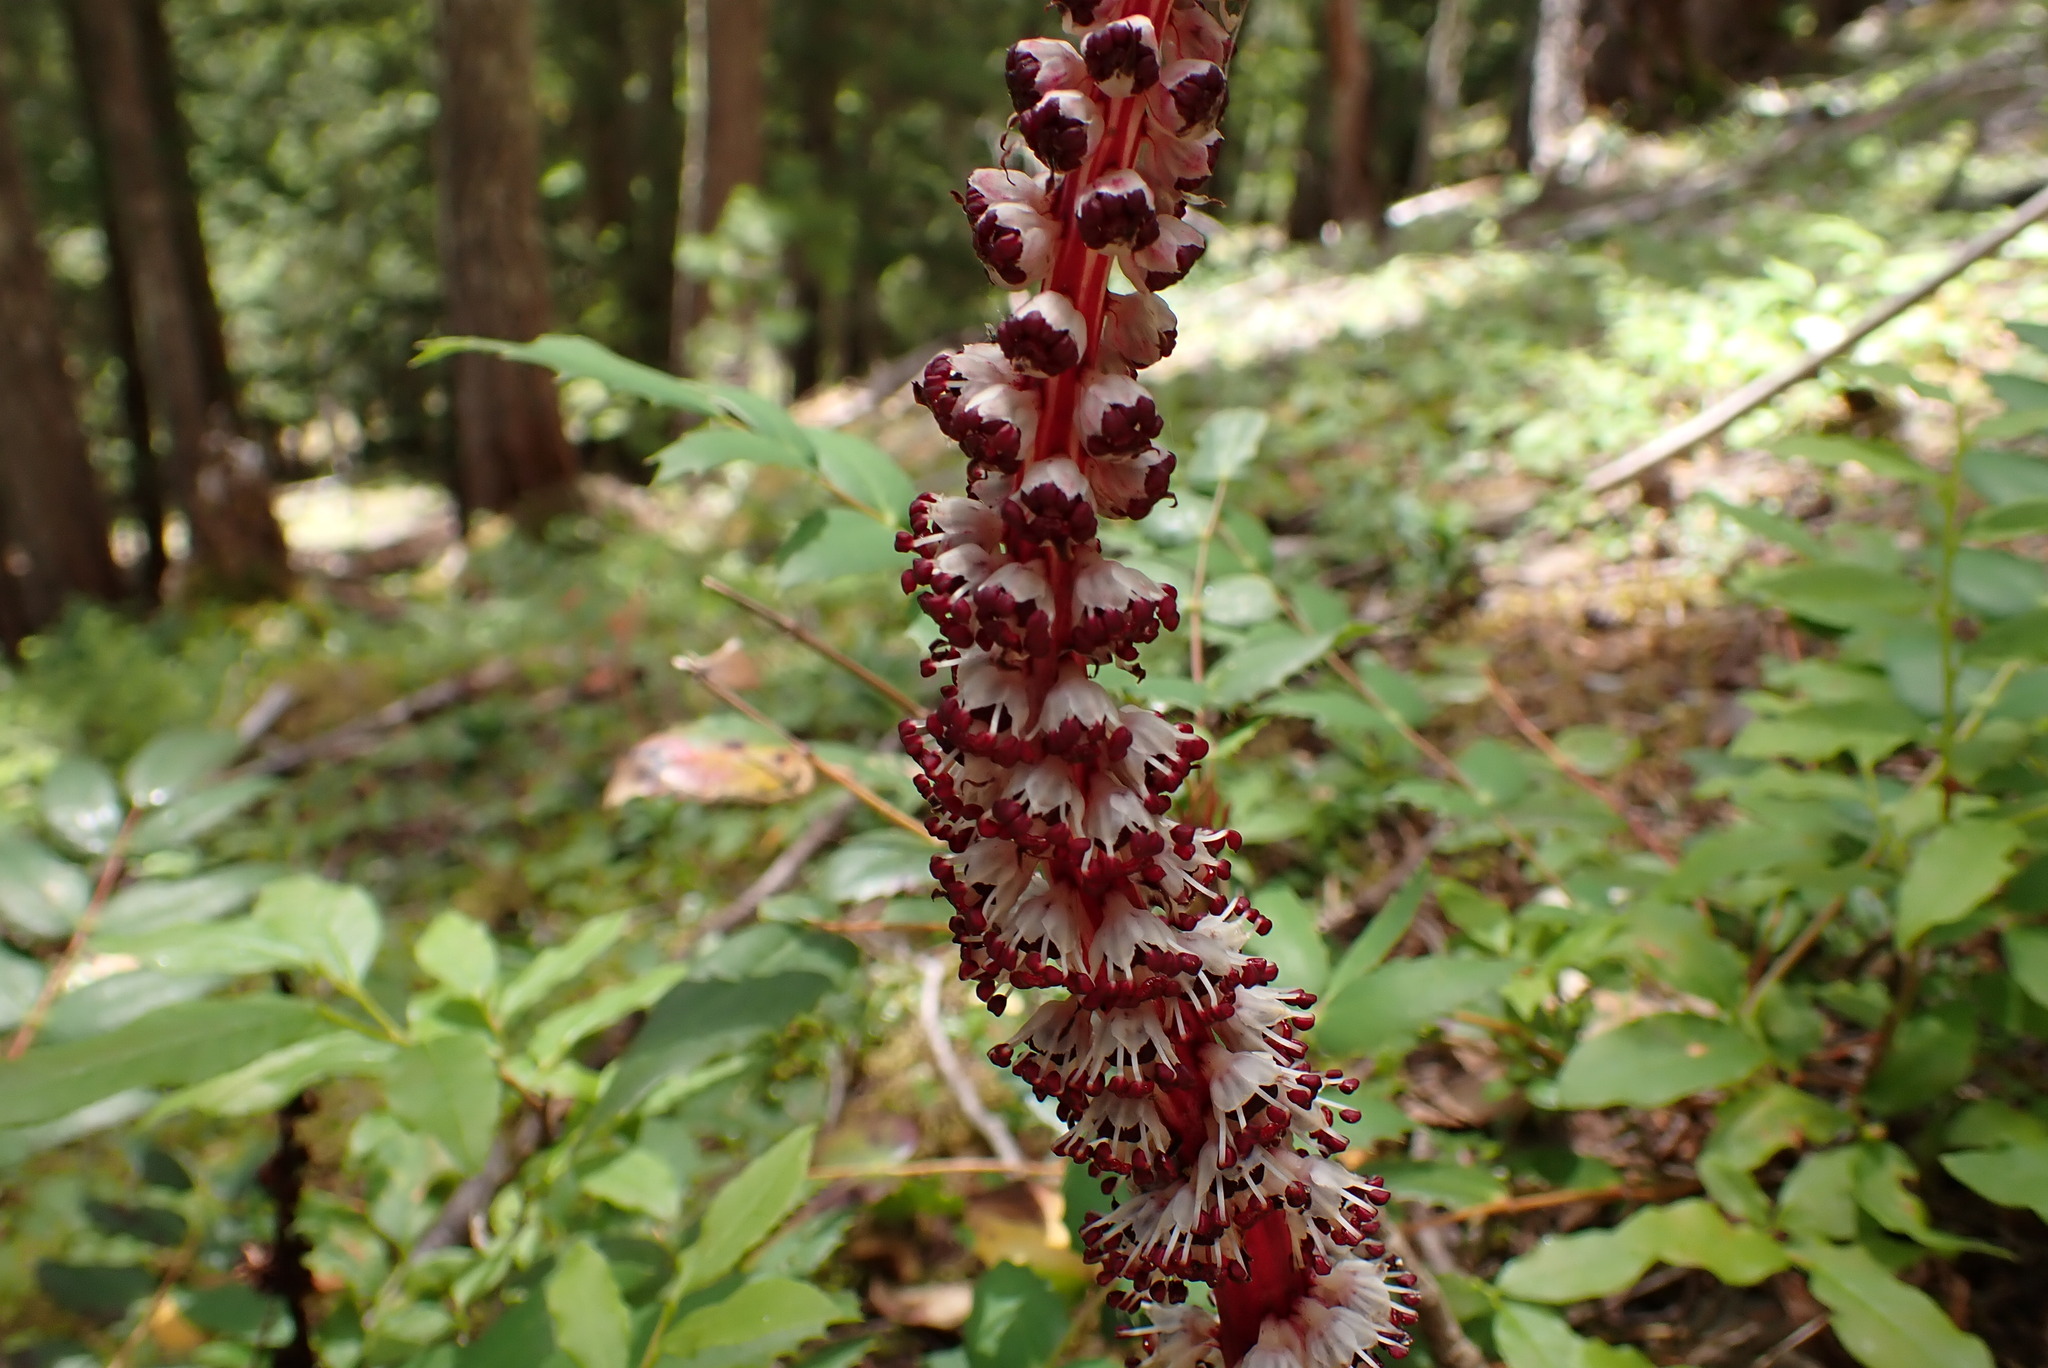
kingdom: Plantae
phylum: Tracheophyta
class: Magnoliopsida
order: Ericales
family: Ericaceae
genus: Allotropa
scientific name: Allotropa virgata
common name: Candy-striped allotropa
